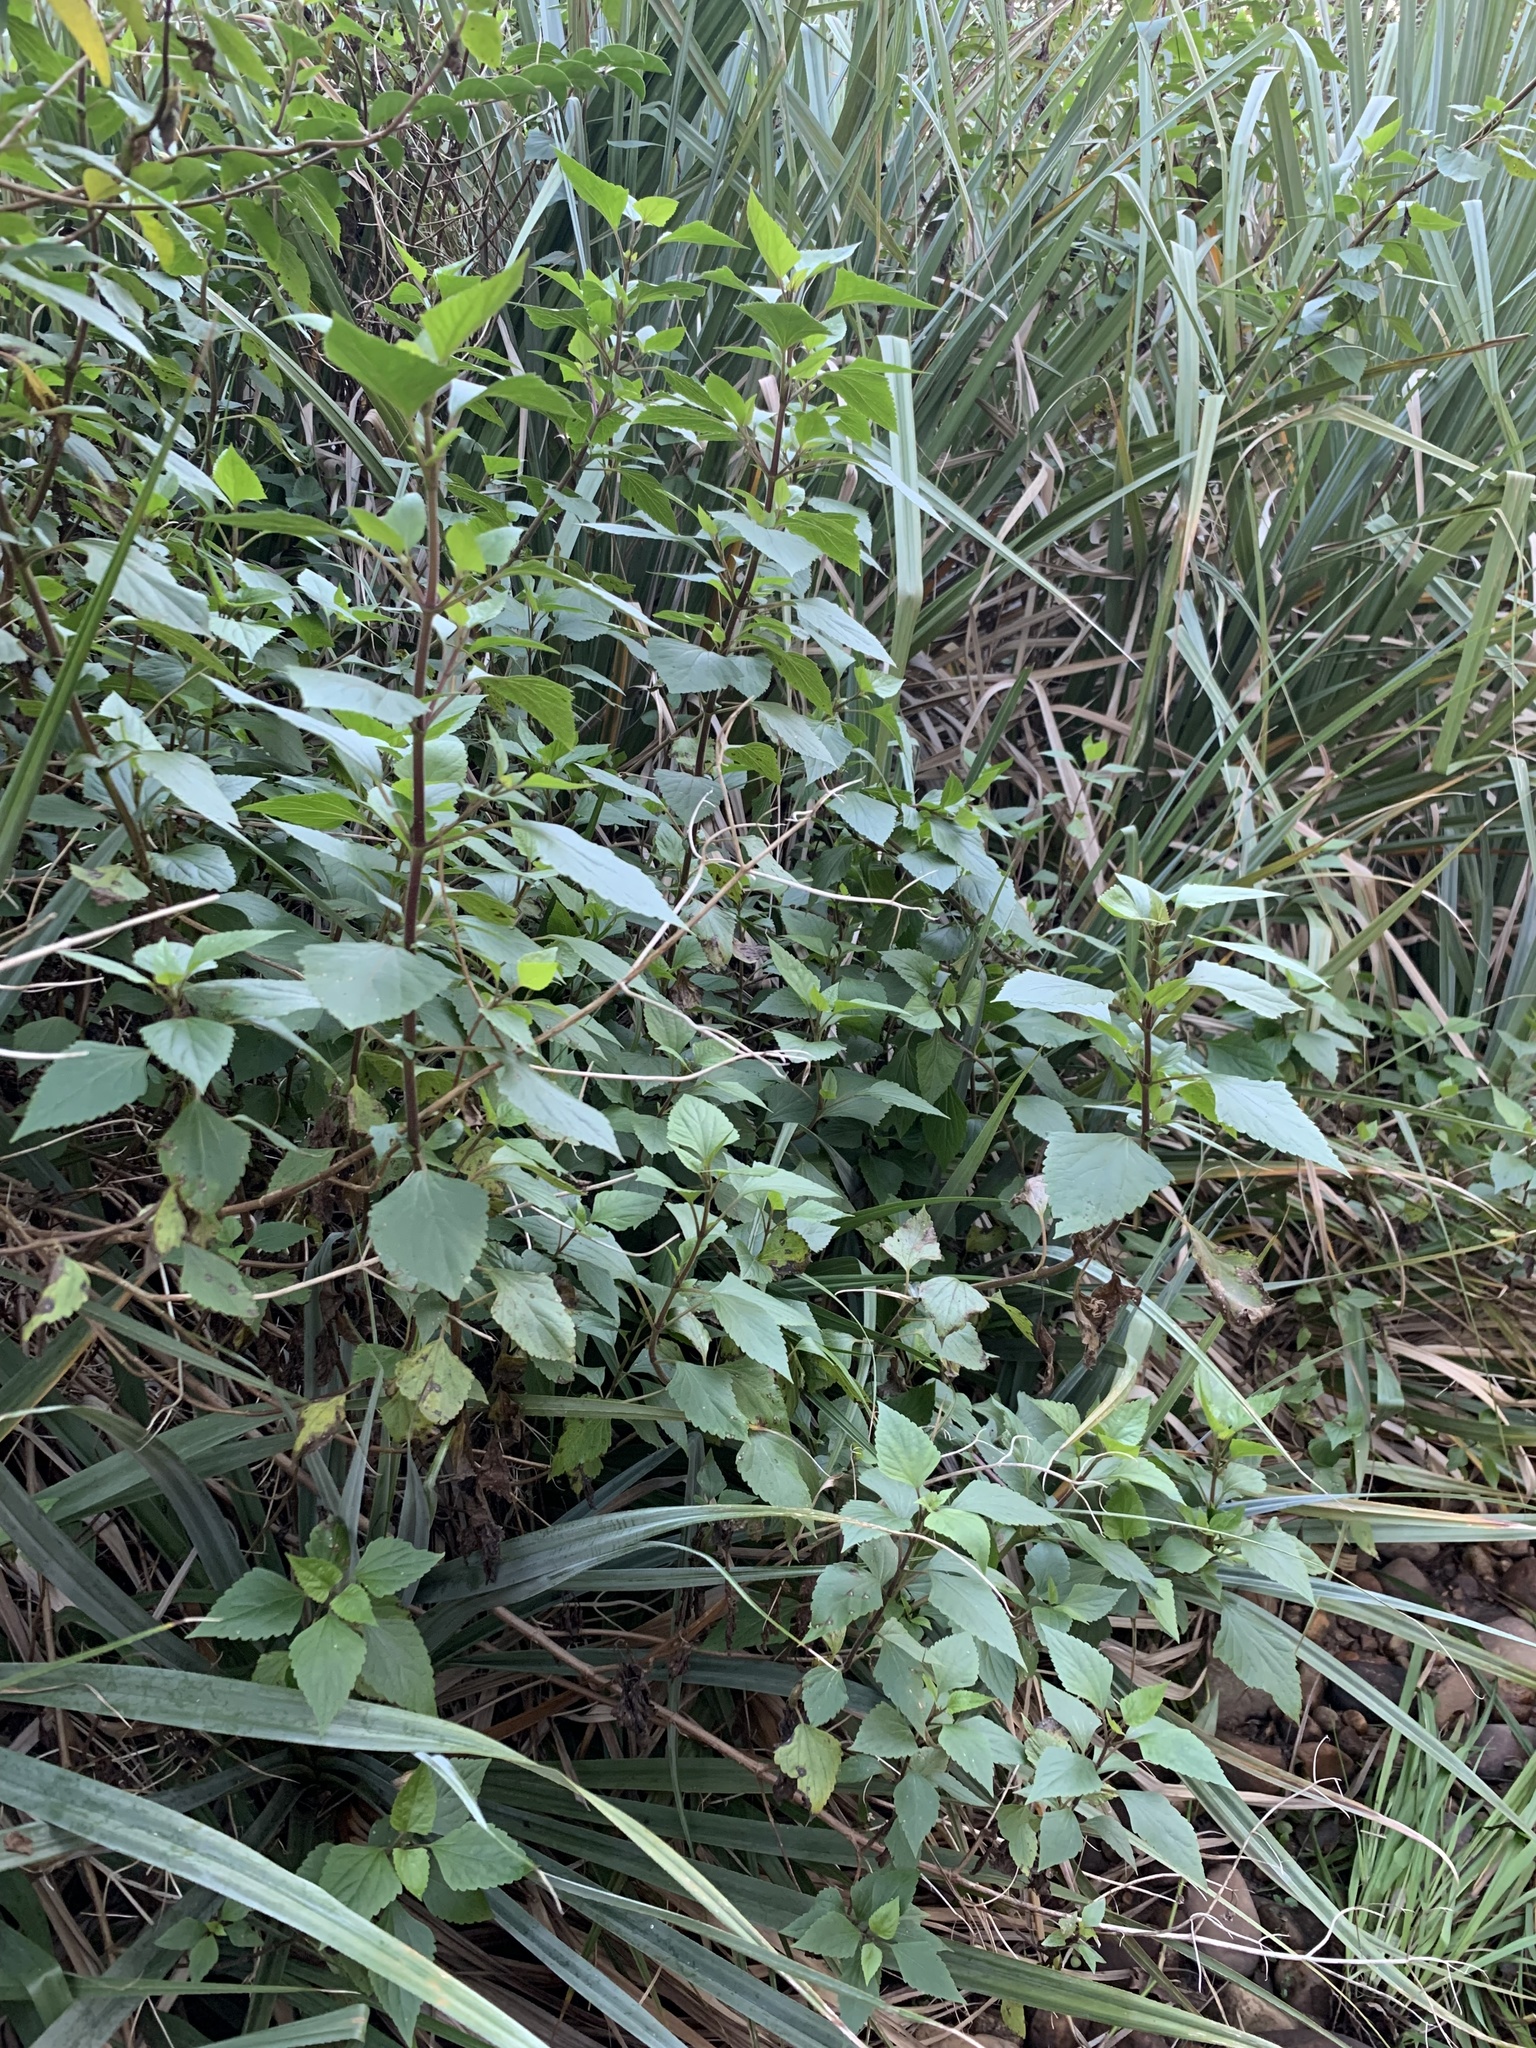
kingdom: Plantae
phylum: Tracheophyta
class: Magnoliopsida
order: Asterales
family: Asteraceae
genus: Ageratina
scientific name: Ageratina adenophora
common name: Sticky snakeroot
